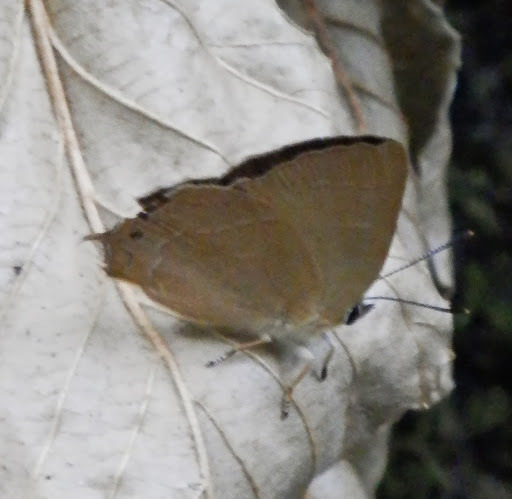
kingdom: Animalia
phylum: Arthropoda
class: Insecta
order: Lepidoptera
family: Lycaenidae
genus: Habrodais
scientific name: Habrodais grunus
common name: Golden hairstreak
